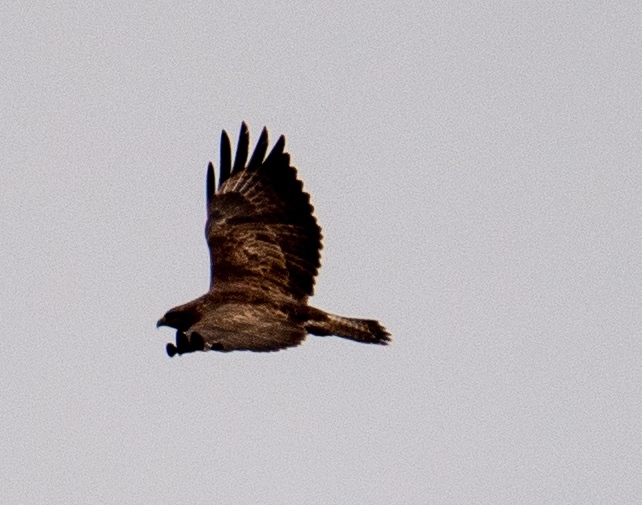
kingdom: Animalia
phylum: Chordata
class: Aves
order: Accipitriformes
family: Accipitridae
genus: Buteo
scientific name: Buteo buteo
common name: Common buzzard
